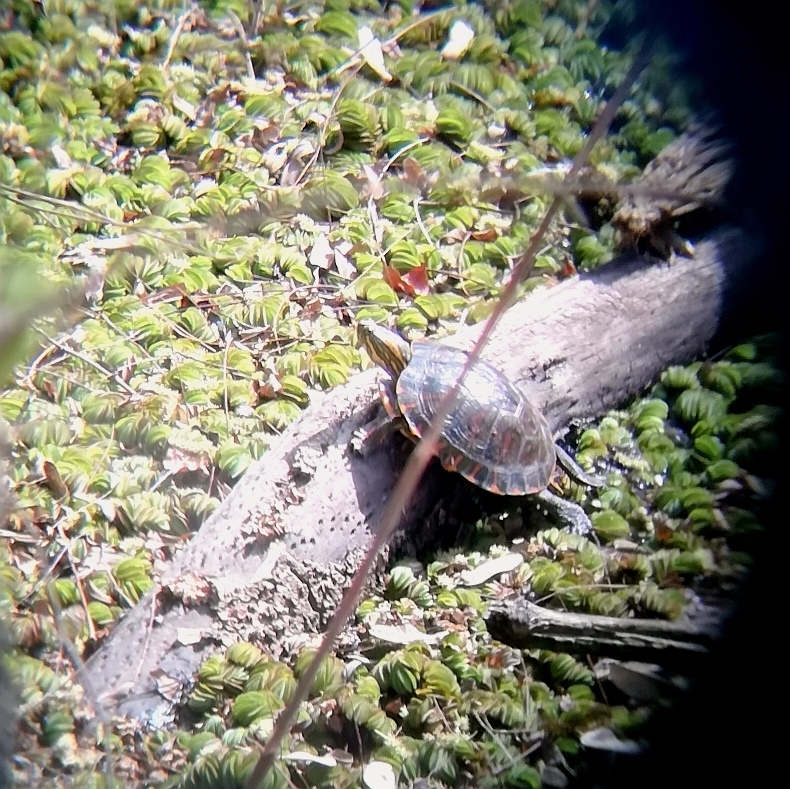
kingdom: Animalia
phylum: Chordata
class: Testudines
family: Emydidae
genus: Trachemys
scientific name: Trachemys dorbigni
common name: Black-bellied slider
